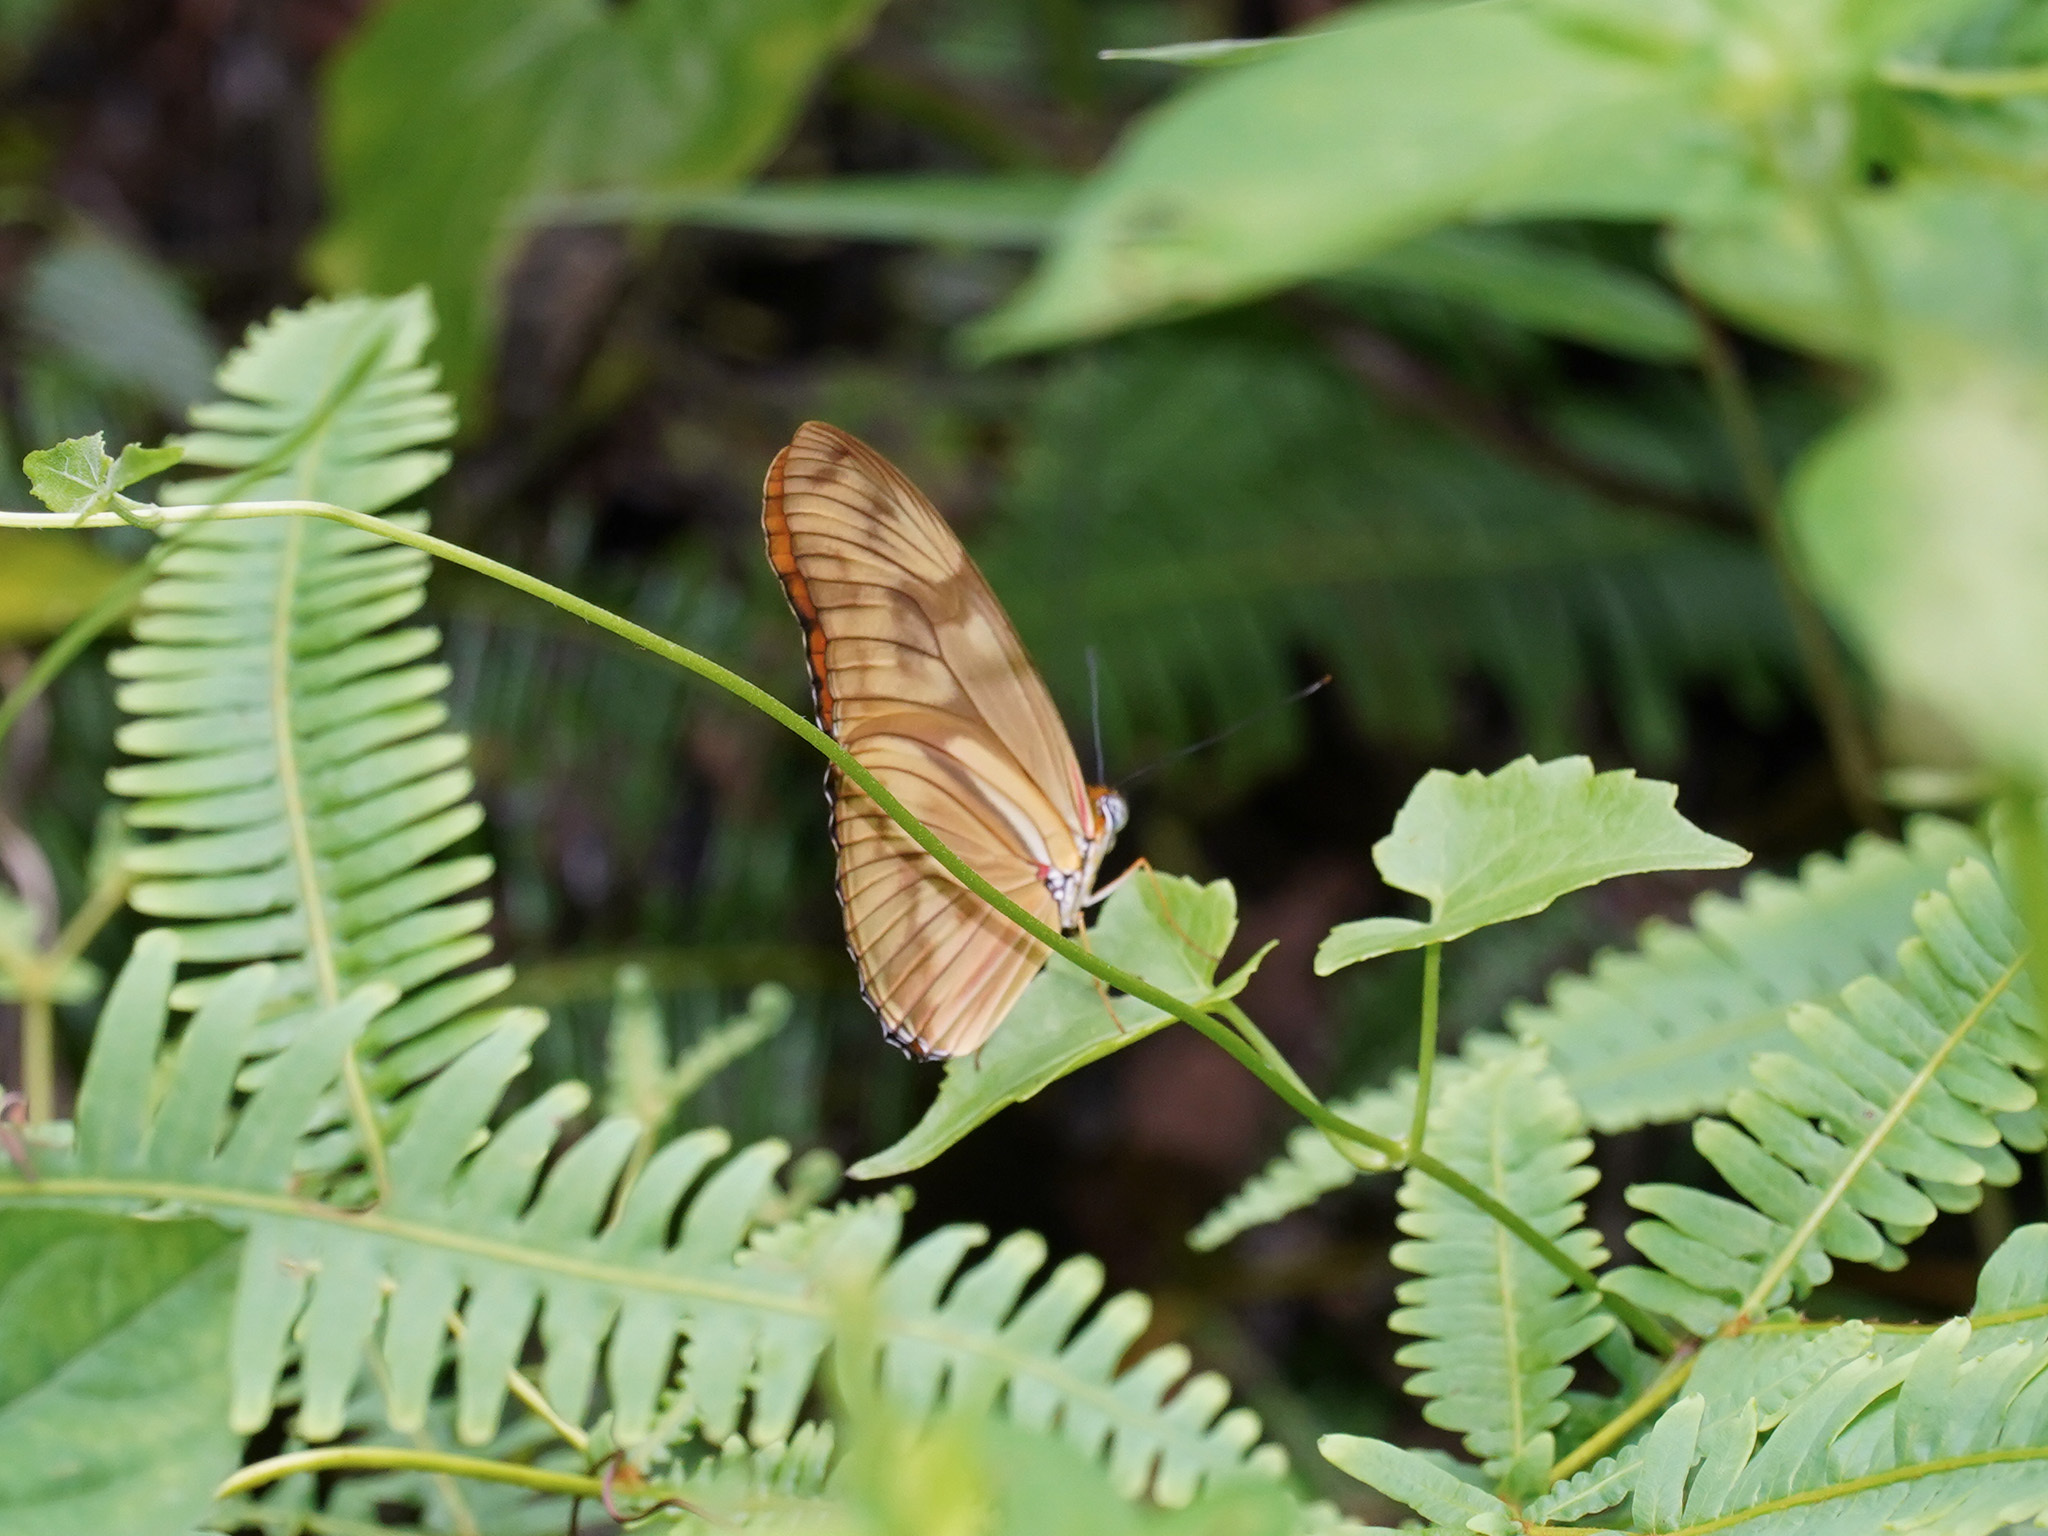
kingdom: Animalia
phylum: Arthropoda
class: Insecta
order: Lepidoptera
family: Nymphalidae
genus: Dryas
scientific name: Dryas iulia
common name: Flambeau
